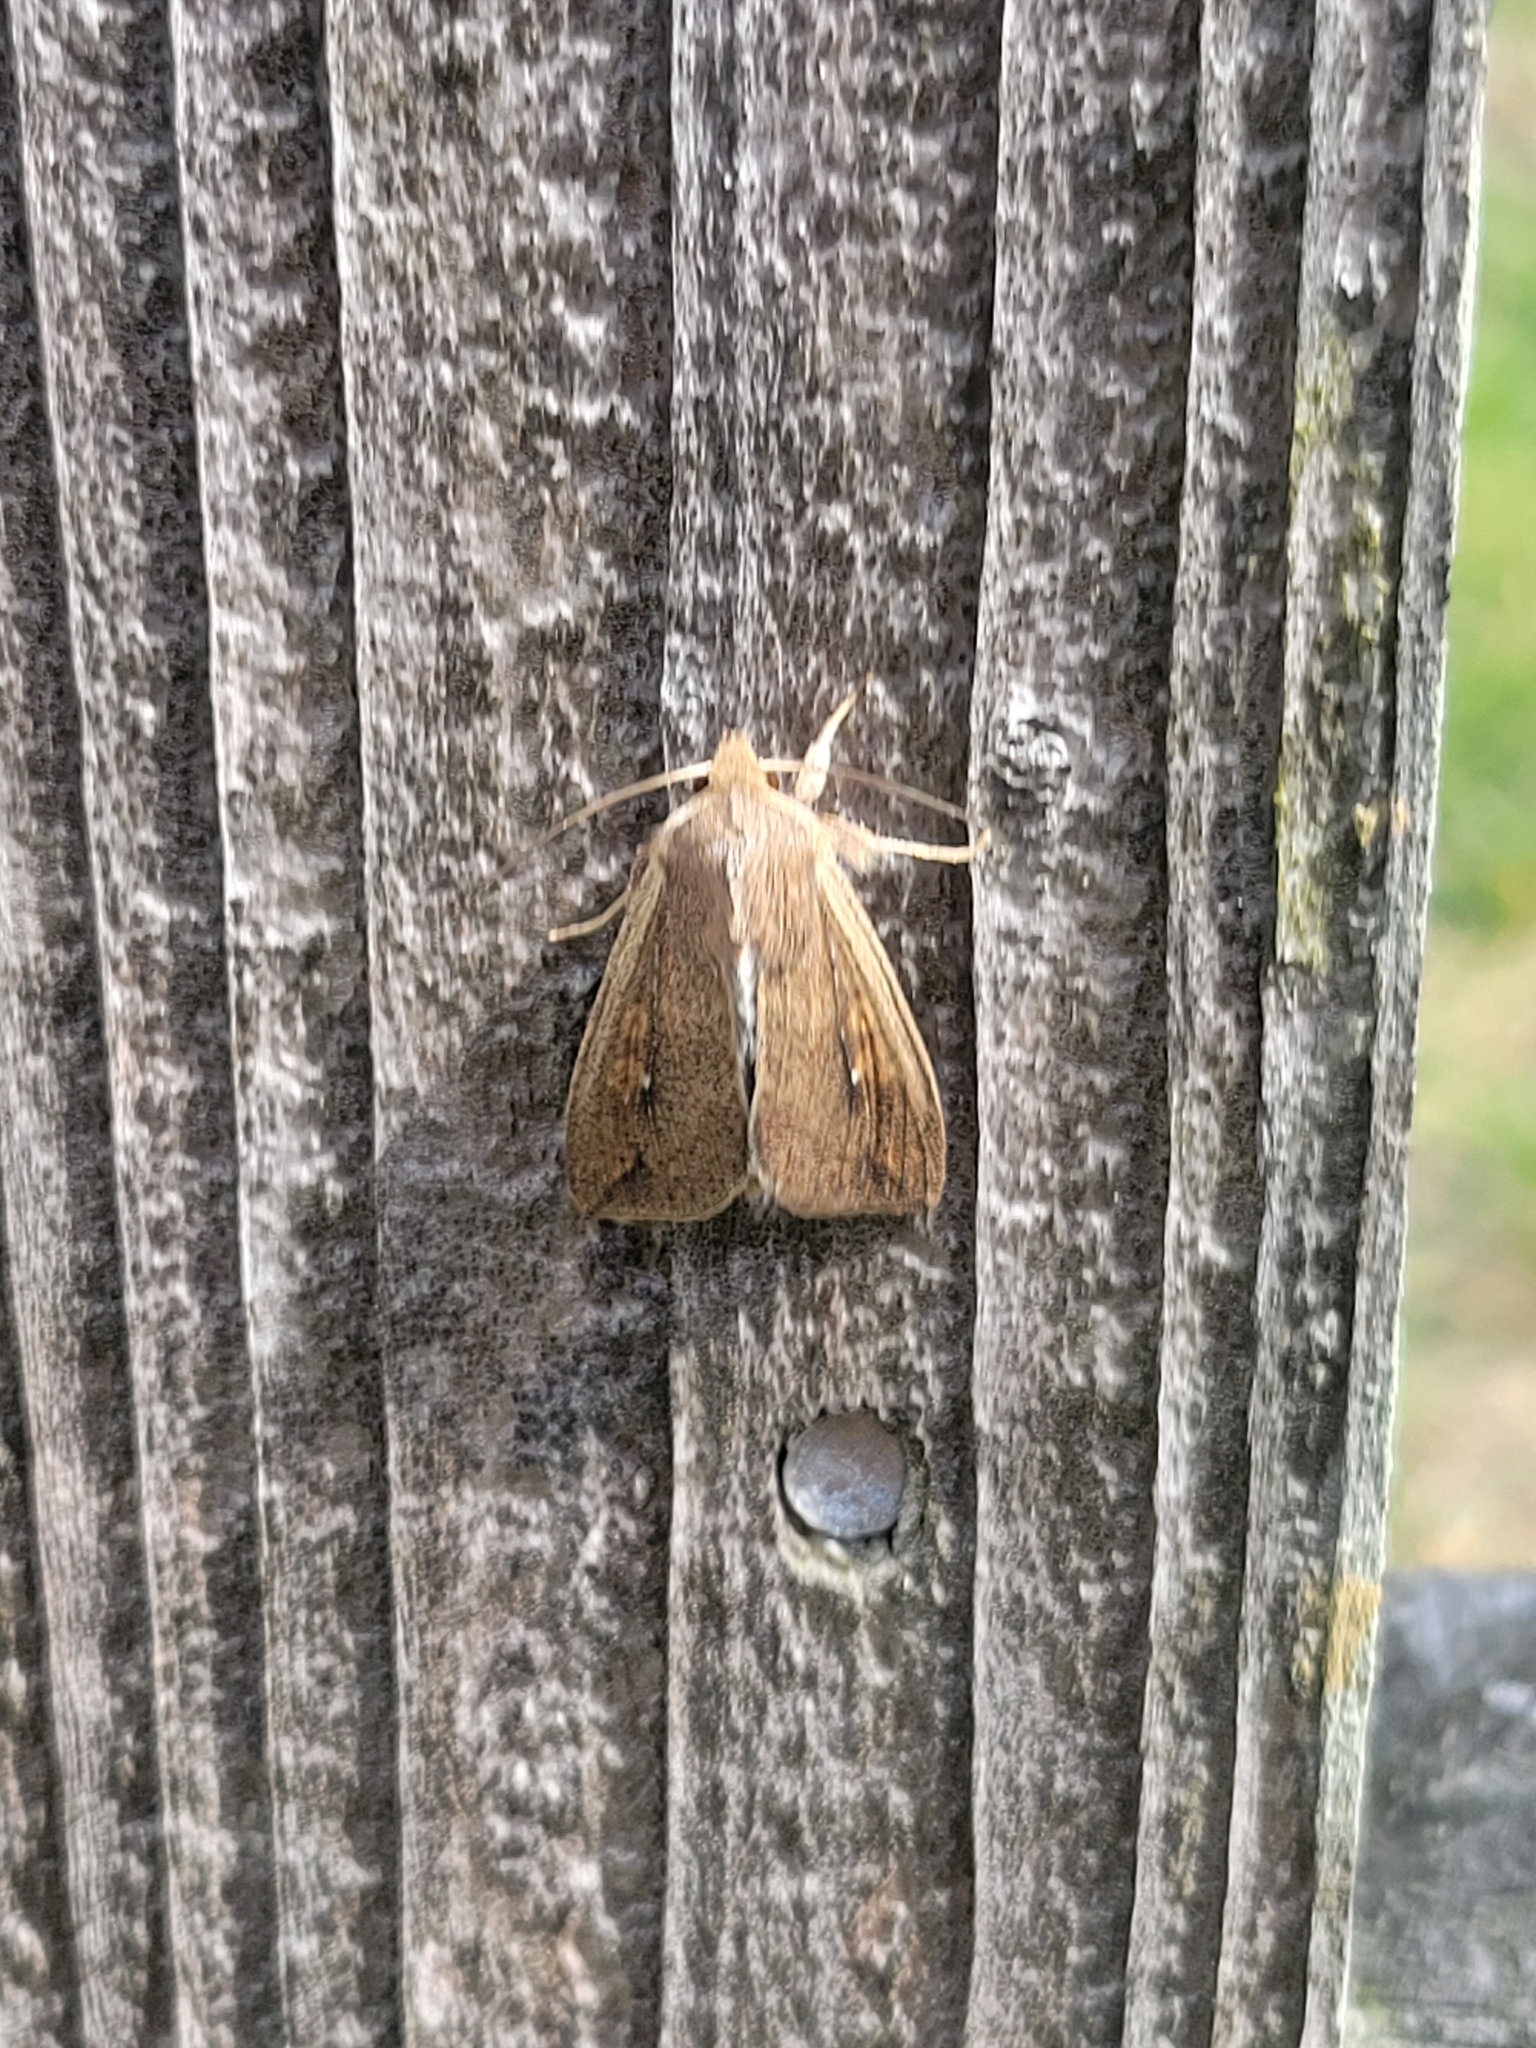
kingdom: Animalia
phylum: Arthropoda
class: Insecta
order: Lepidoptera
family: Noctuidae
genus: Mythimna
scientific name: Mythimna unipuncta
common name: White-speck
